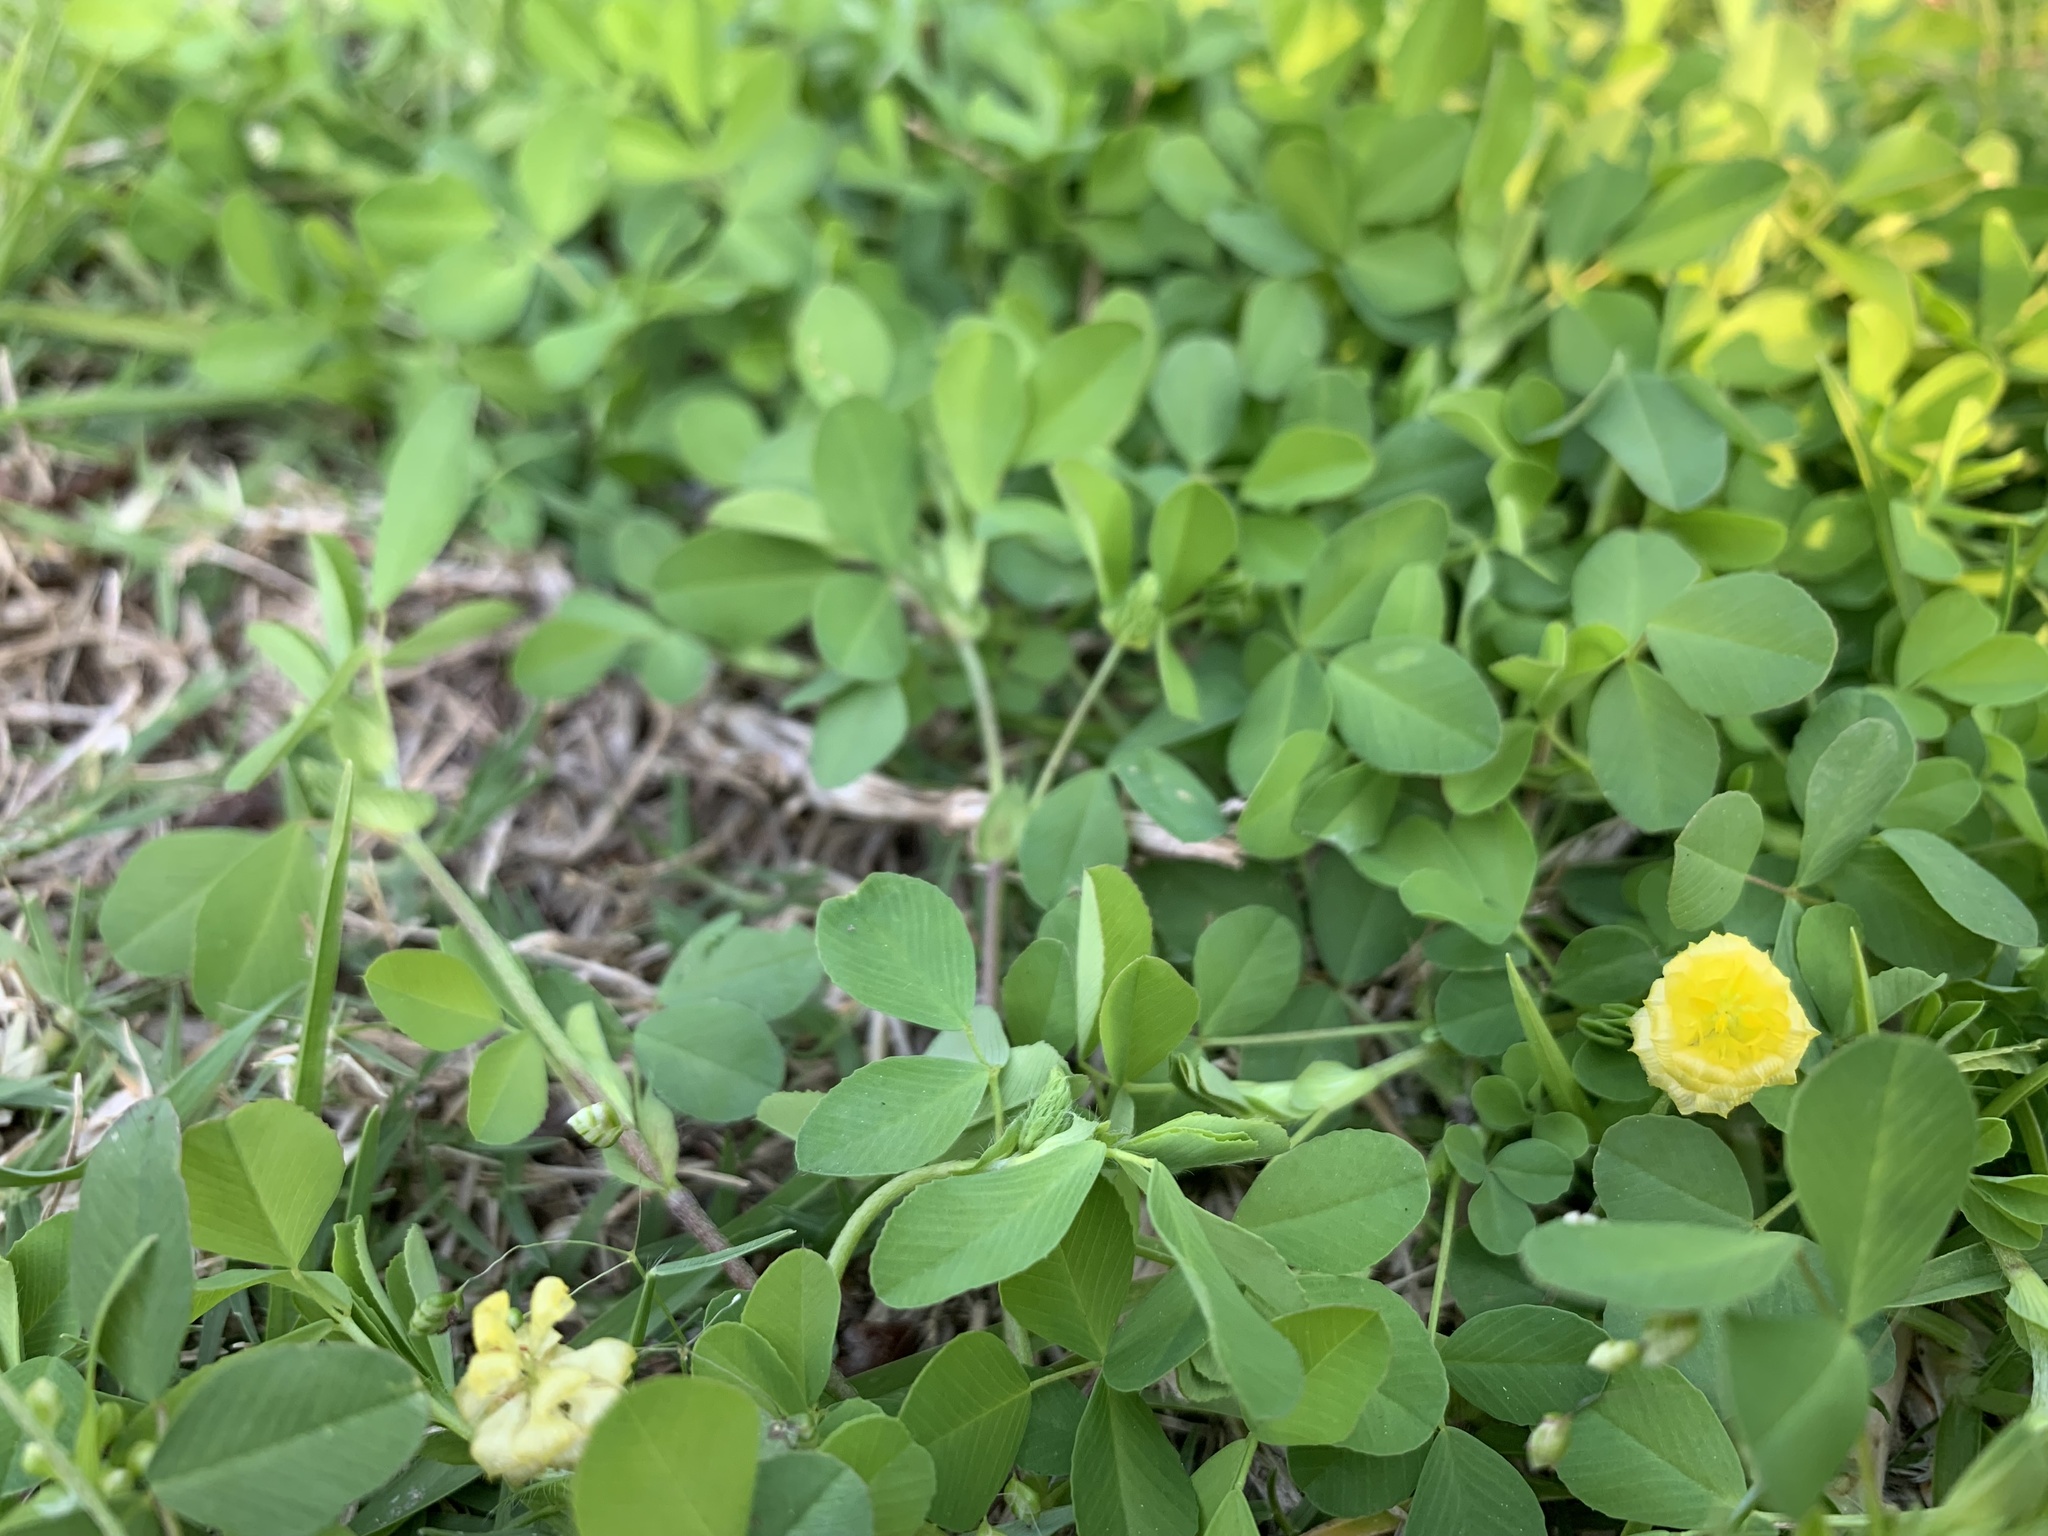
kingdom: Plantae
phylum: Tracheophyta
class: Magnoliopsida
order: Fabales
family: Fabaceae
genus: Trifolium
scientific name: Trifolium campestre
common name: Field clover
